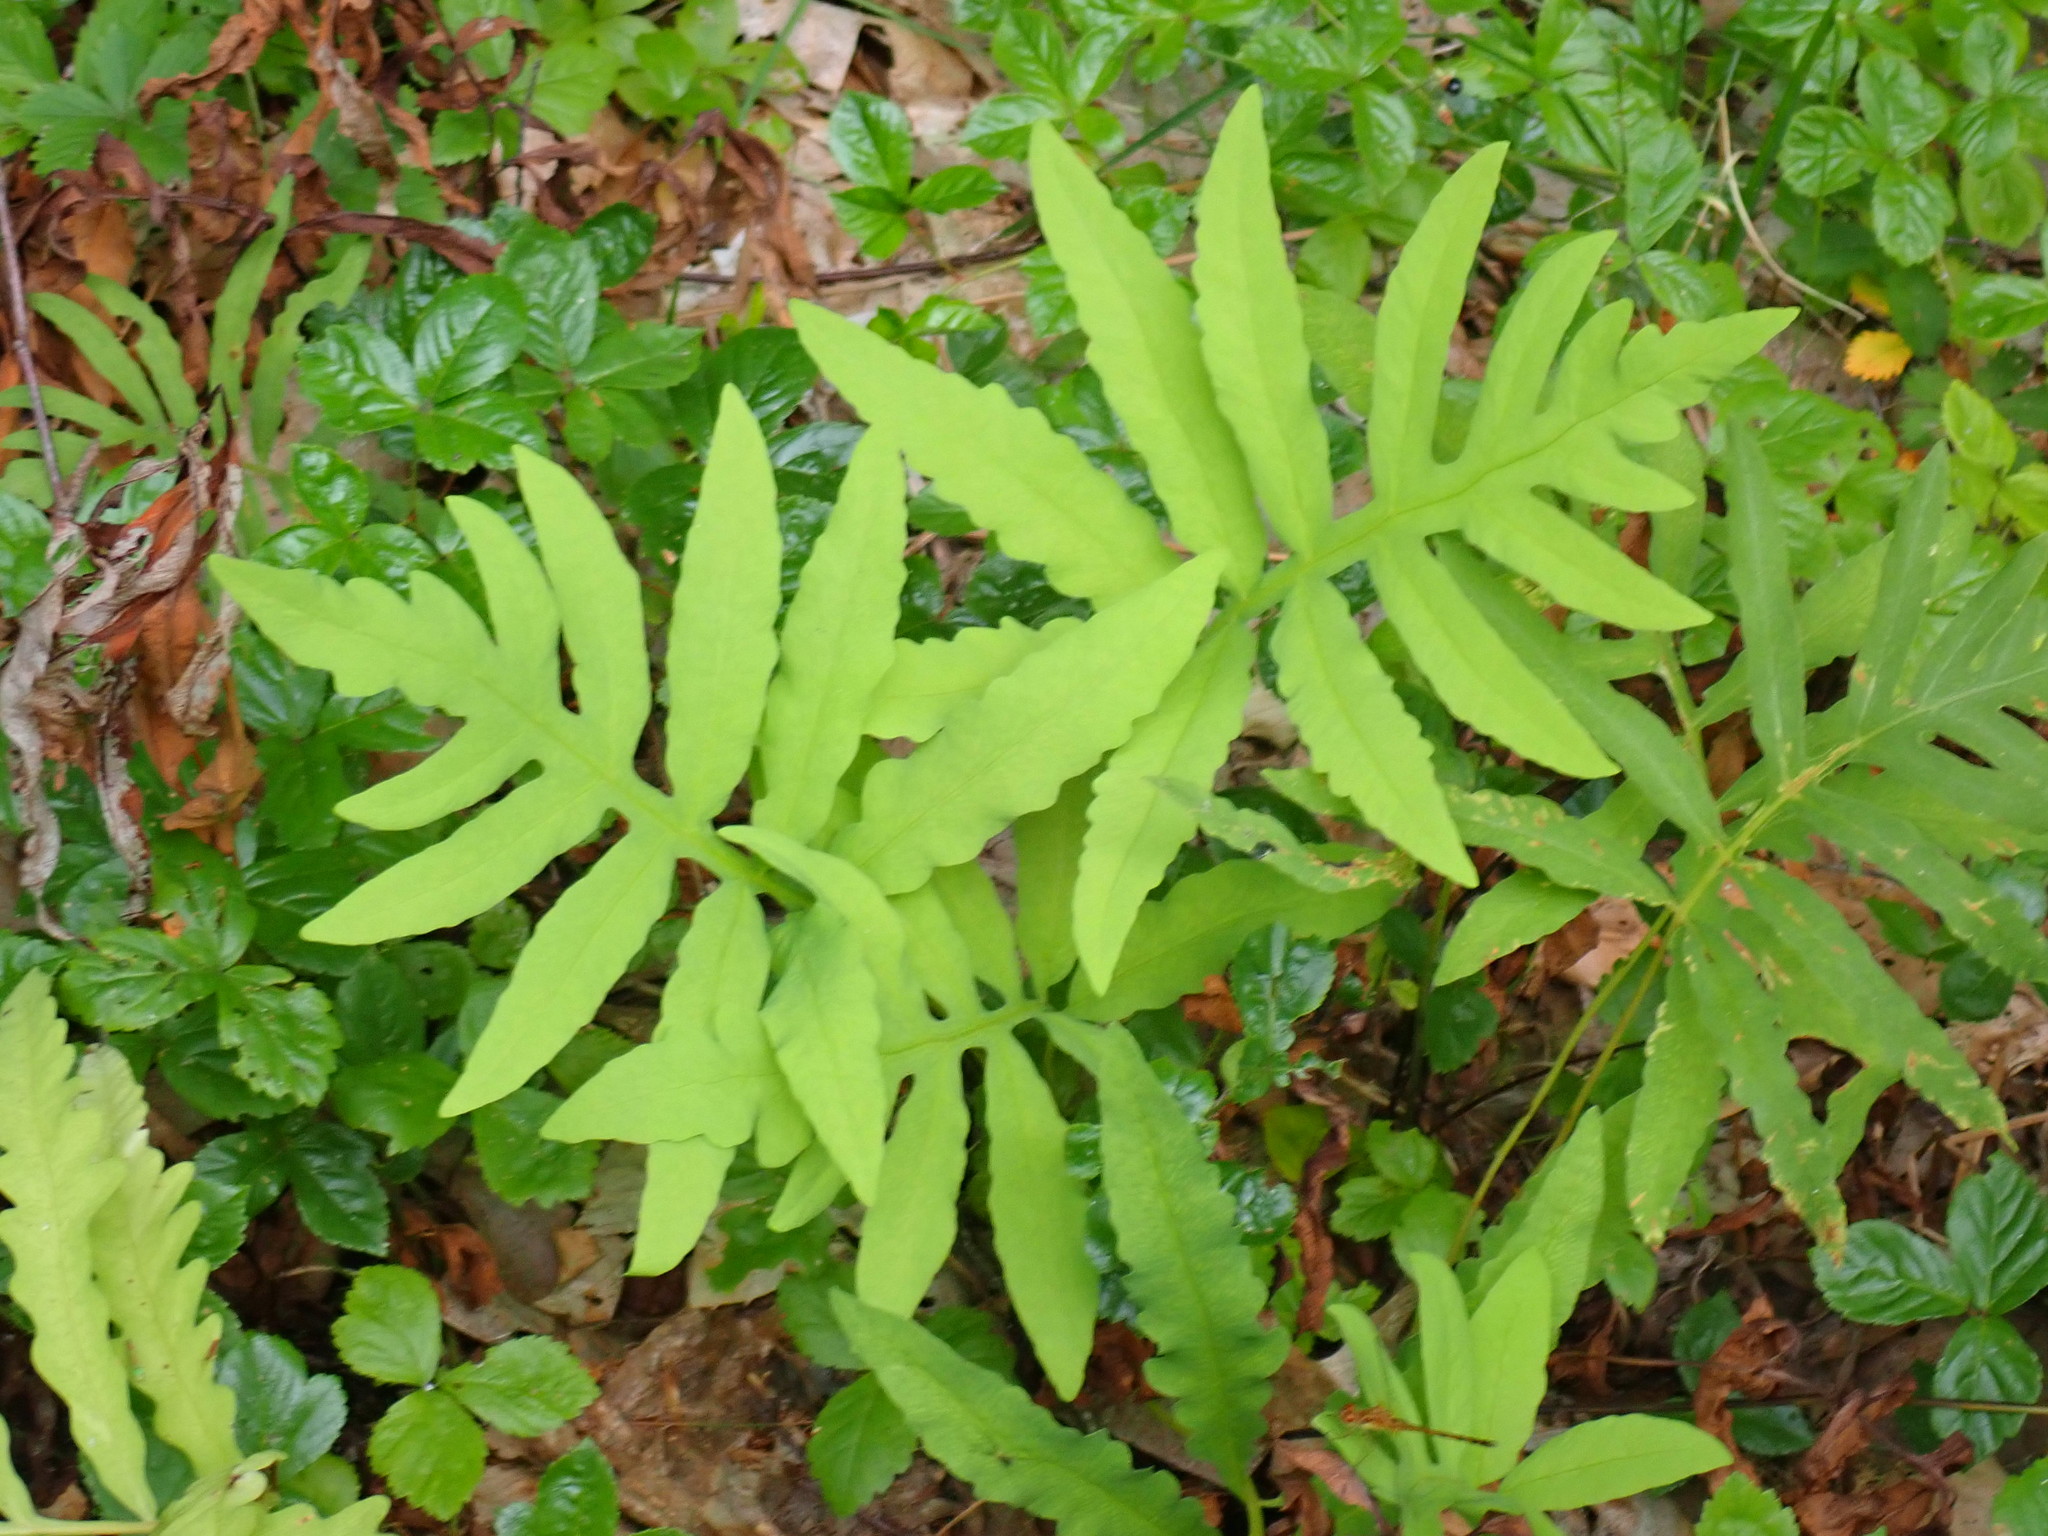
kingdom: Plantae
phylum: Tracheophyta
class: Polypodiopsida
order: Polypodiales
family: Onocleaceae
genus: Onoclea
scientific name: Onoclea sensibilis
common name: Sensitive fern
